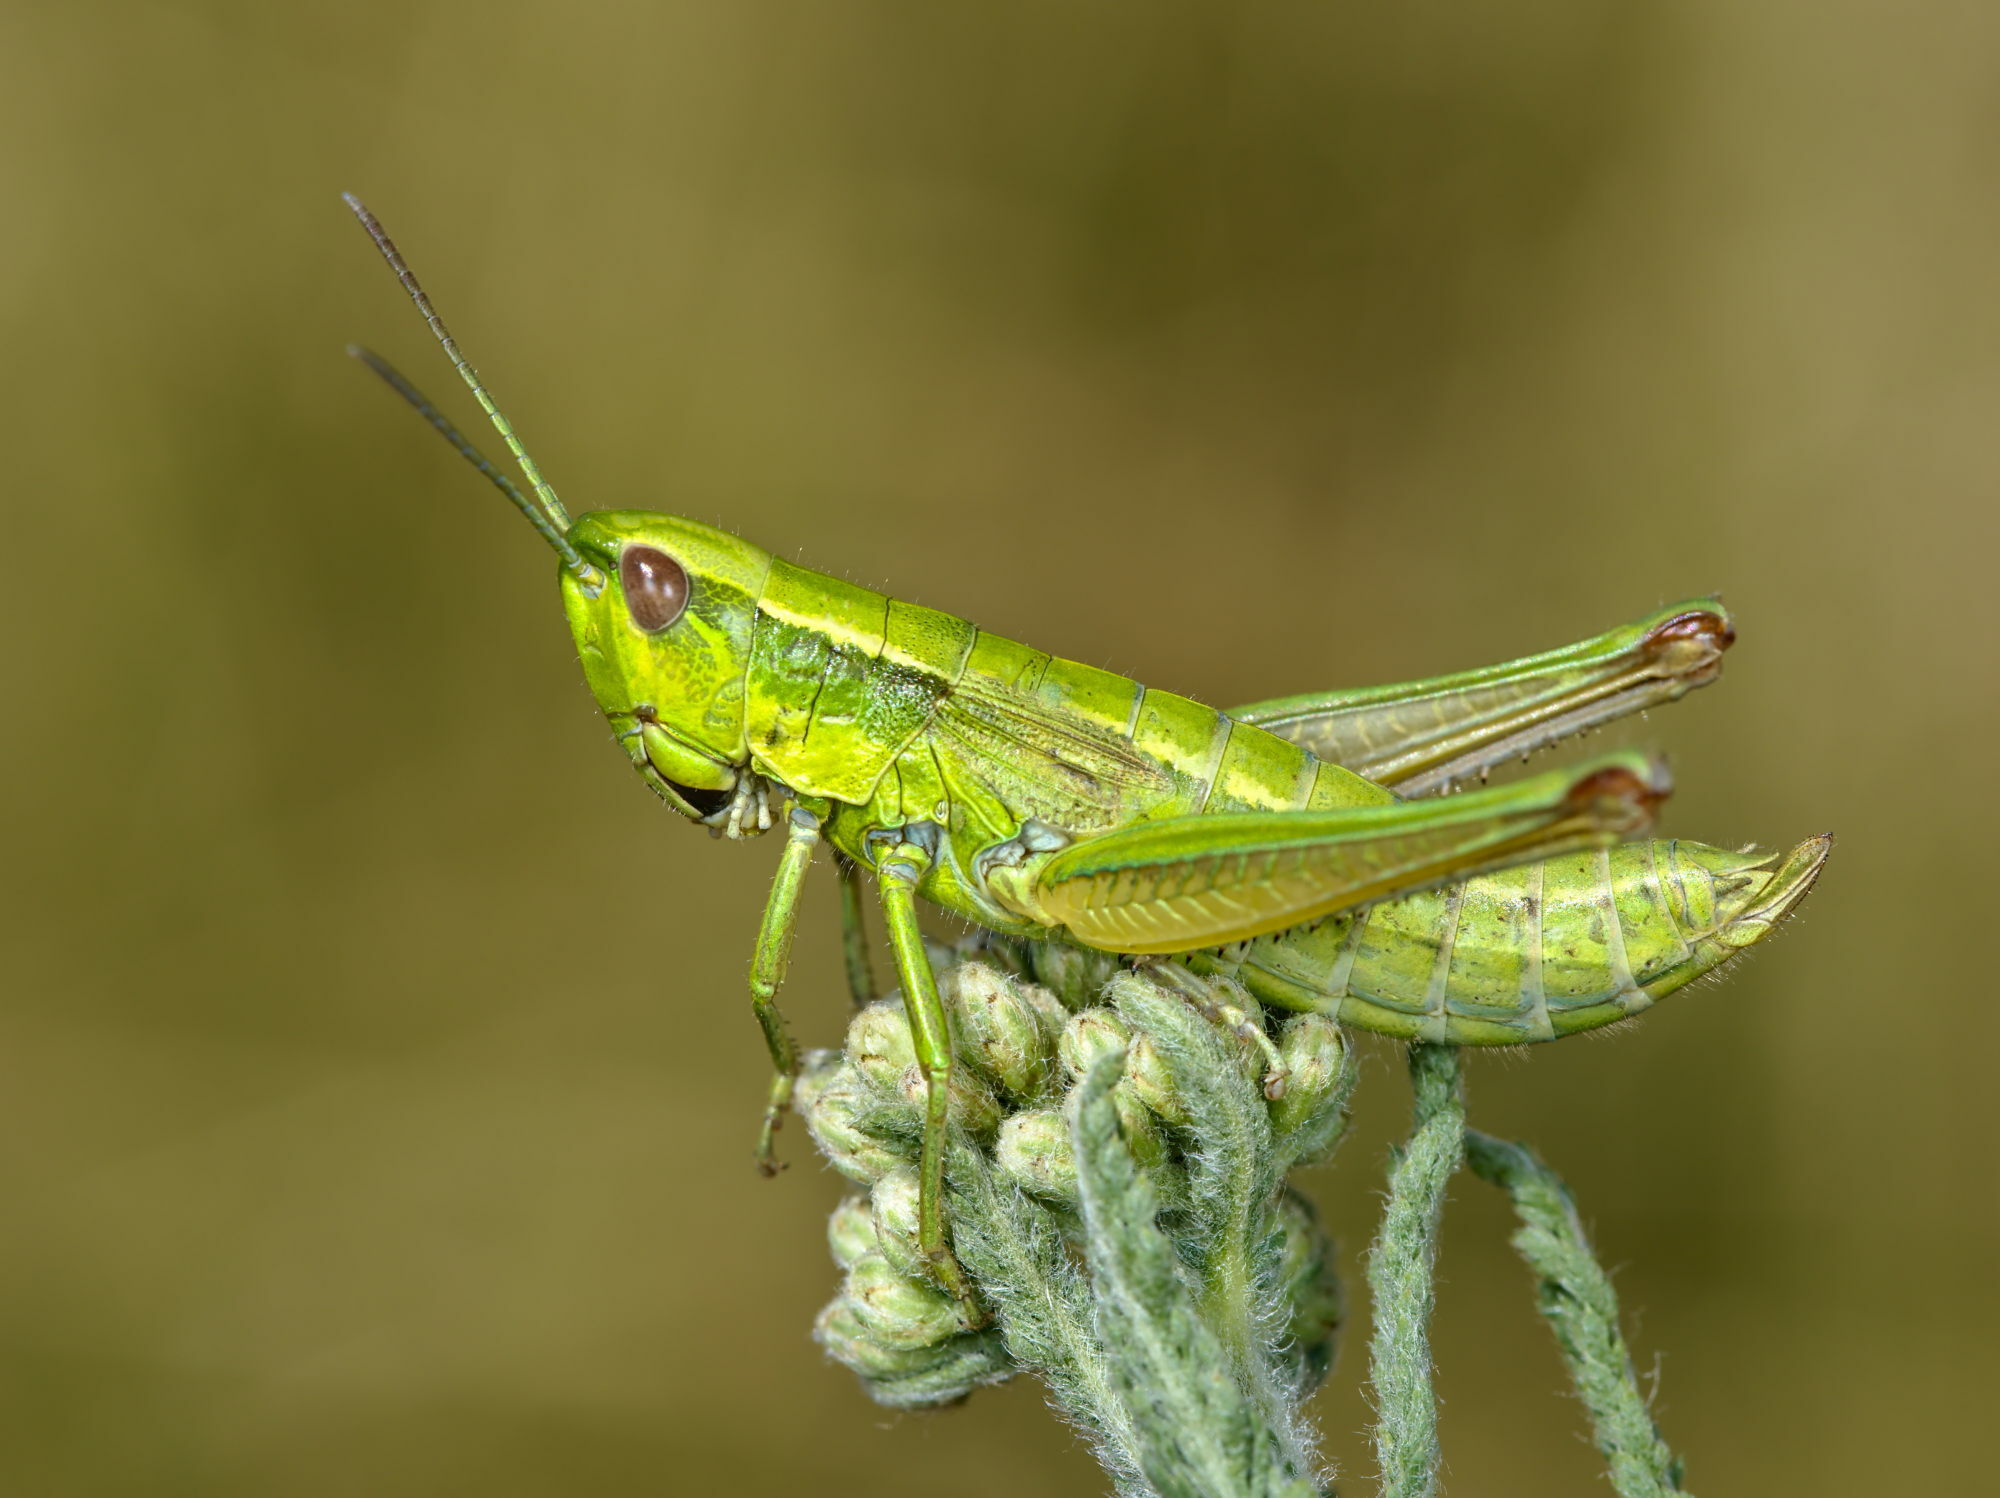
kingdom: Animalia
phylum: Arthropoda
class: Insecta
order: Orthoptera
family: Acrididae
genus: Euthystira
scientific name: Euthystira brachyptera
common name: Small gold grasshopper
